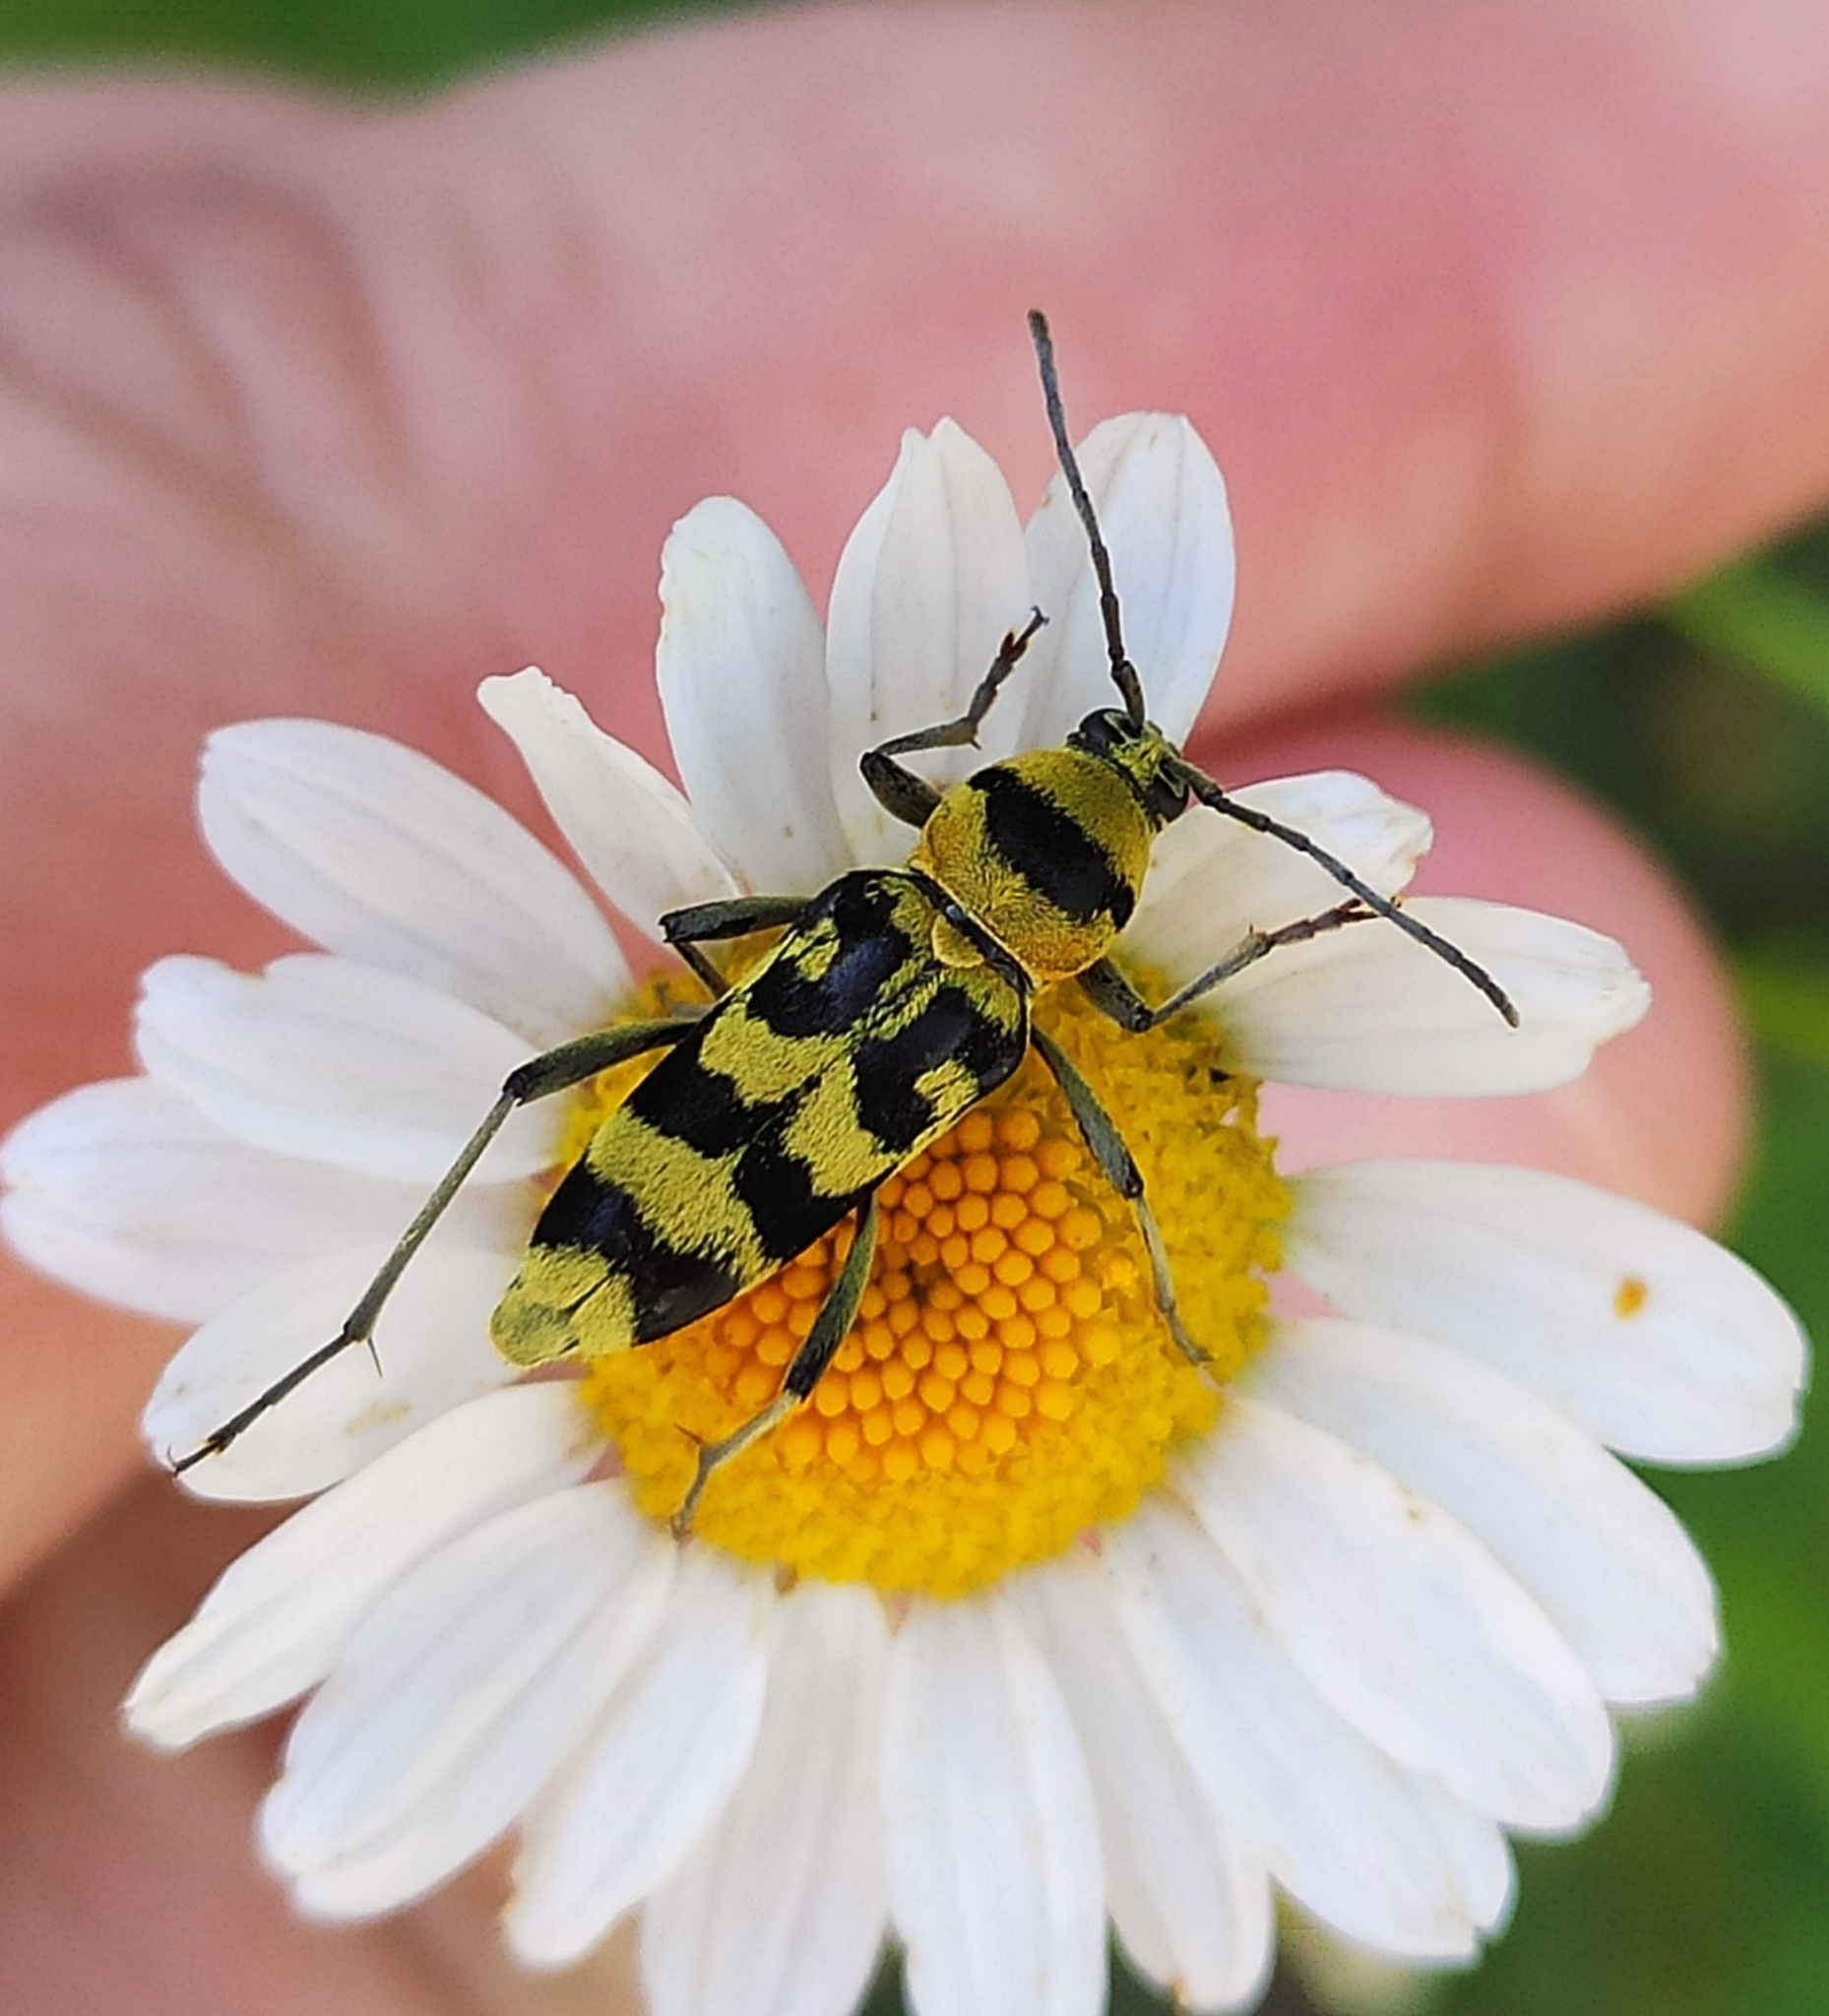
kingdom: Animalia
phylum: Arthropoda
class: Insecta
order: Coleoptera
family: Cerambycidae
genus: Chlorophorus
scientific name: Chlorophorus varius
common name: Grape wood borer
